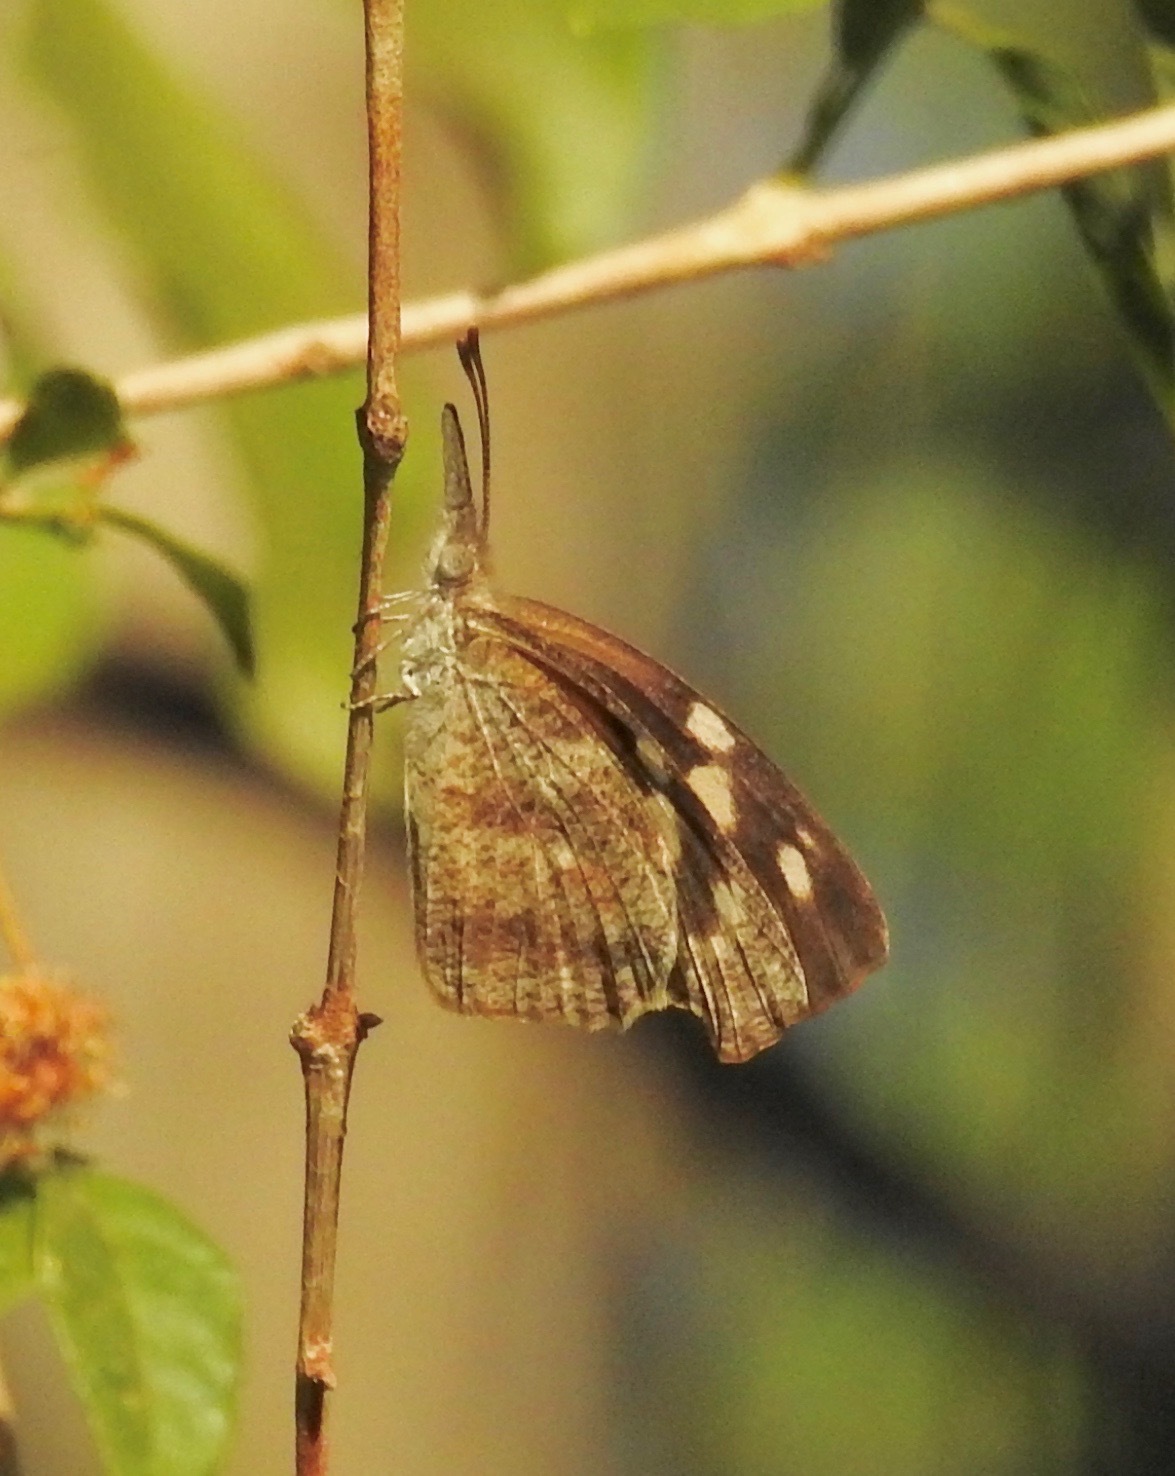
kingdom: Animalia
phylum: Arthropoda
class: Insecta
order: Lepidoptera
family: Nymphalidae
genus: Libytheana
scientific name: Libytheana carinenta
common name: American snout
